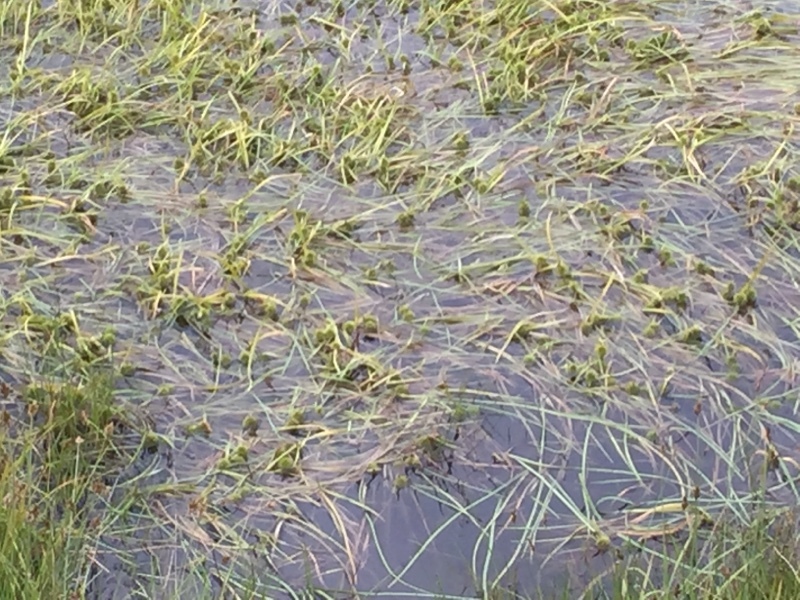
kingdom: Plantae
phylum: Tracheophyta
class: Liliopsida
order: Poales
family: Typhaceae
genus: Sparganium
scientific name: Sparganium angustifolium
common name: Floating bur-reed
